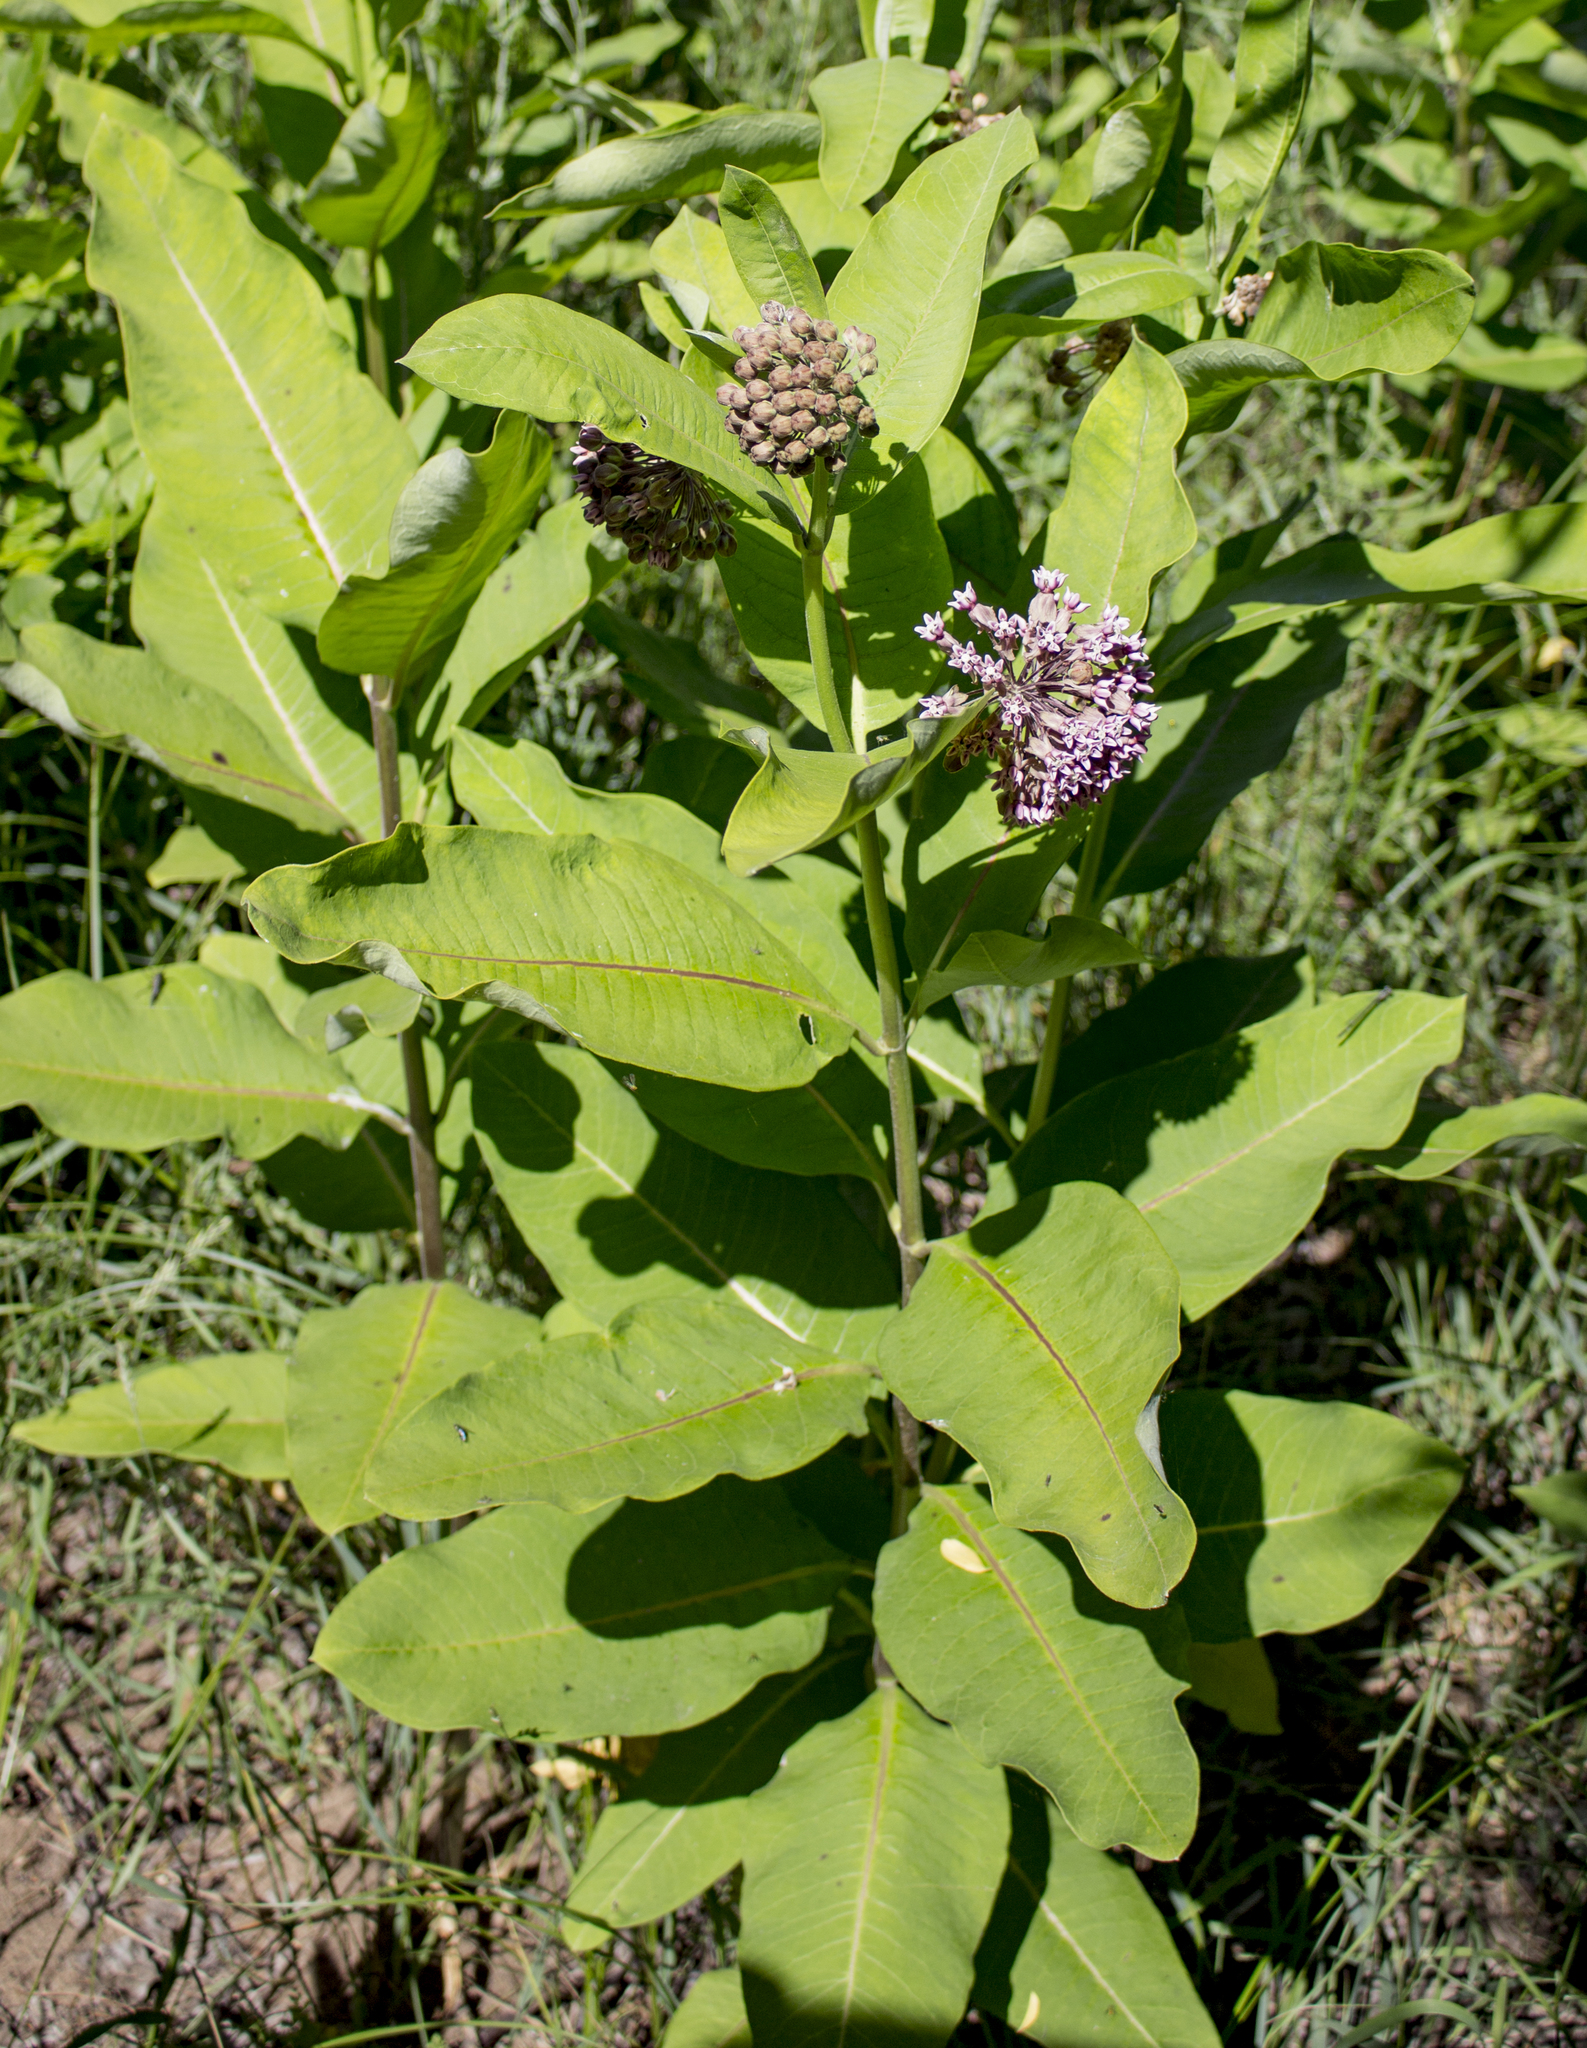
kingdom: Plantae
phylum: Tracheophyta
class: Magnoliopsida
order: Gentianales
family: Apocynaceae
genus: Asclepias
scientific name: Asclepias syriaca
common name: Common milkweed
